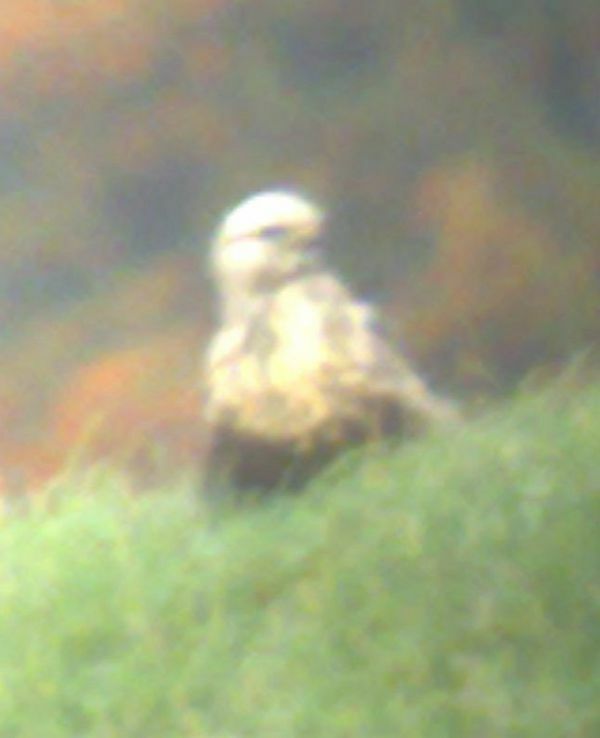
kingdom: Animalia
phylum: Chordata
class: Aves
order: Accipitriformes
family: Accipitridae
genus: Buteo
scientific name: Buteo lagopus
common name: Rough-legged buzzard
